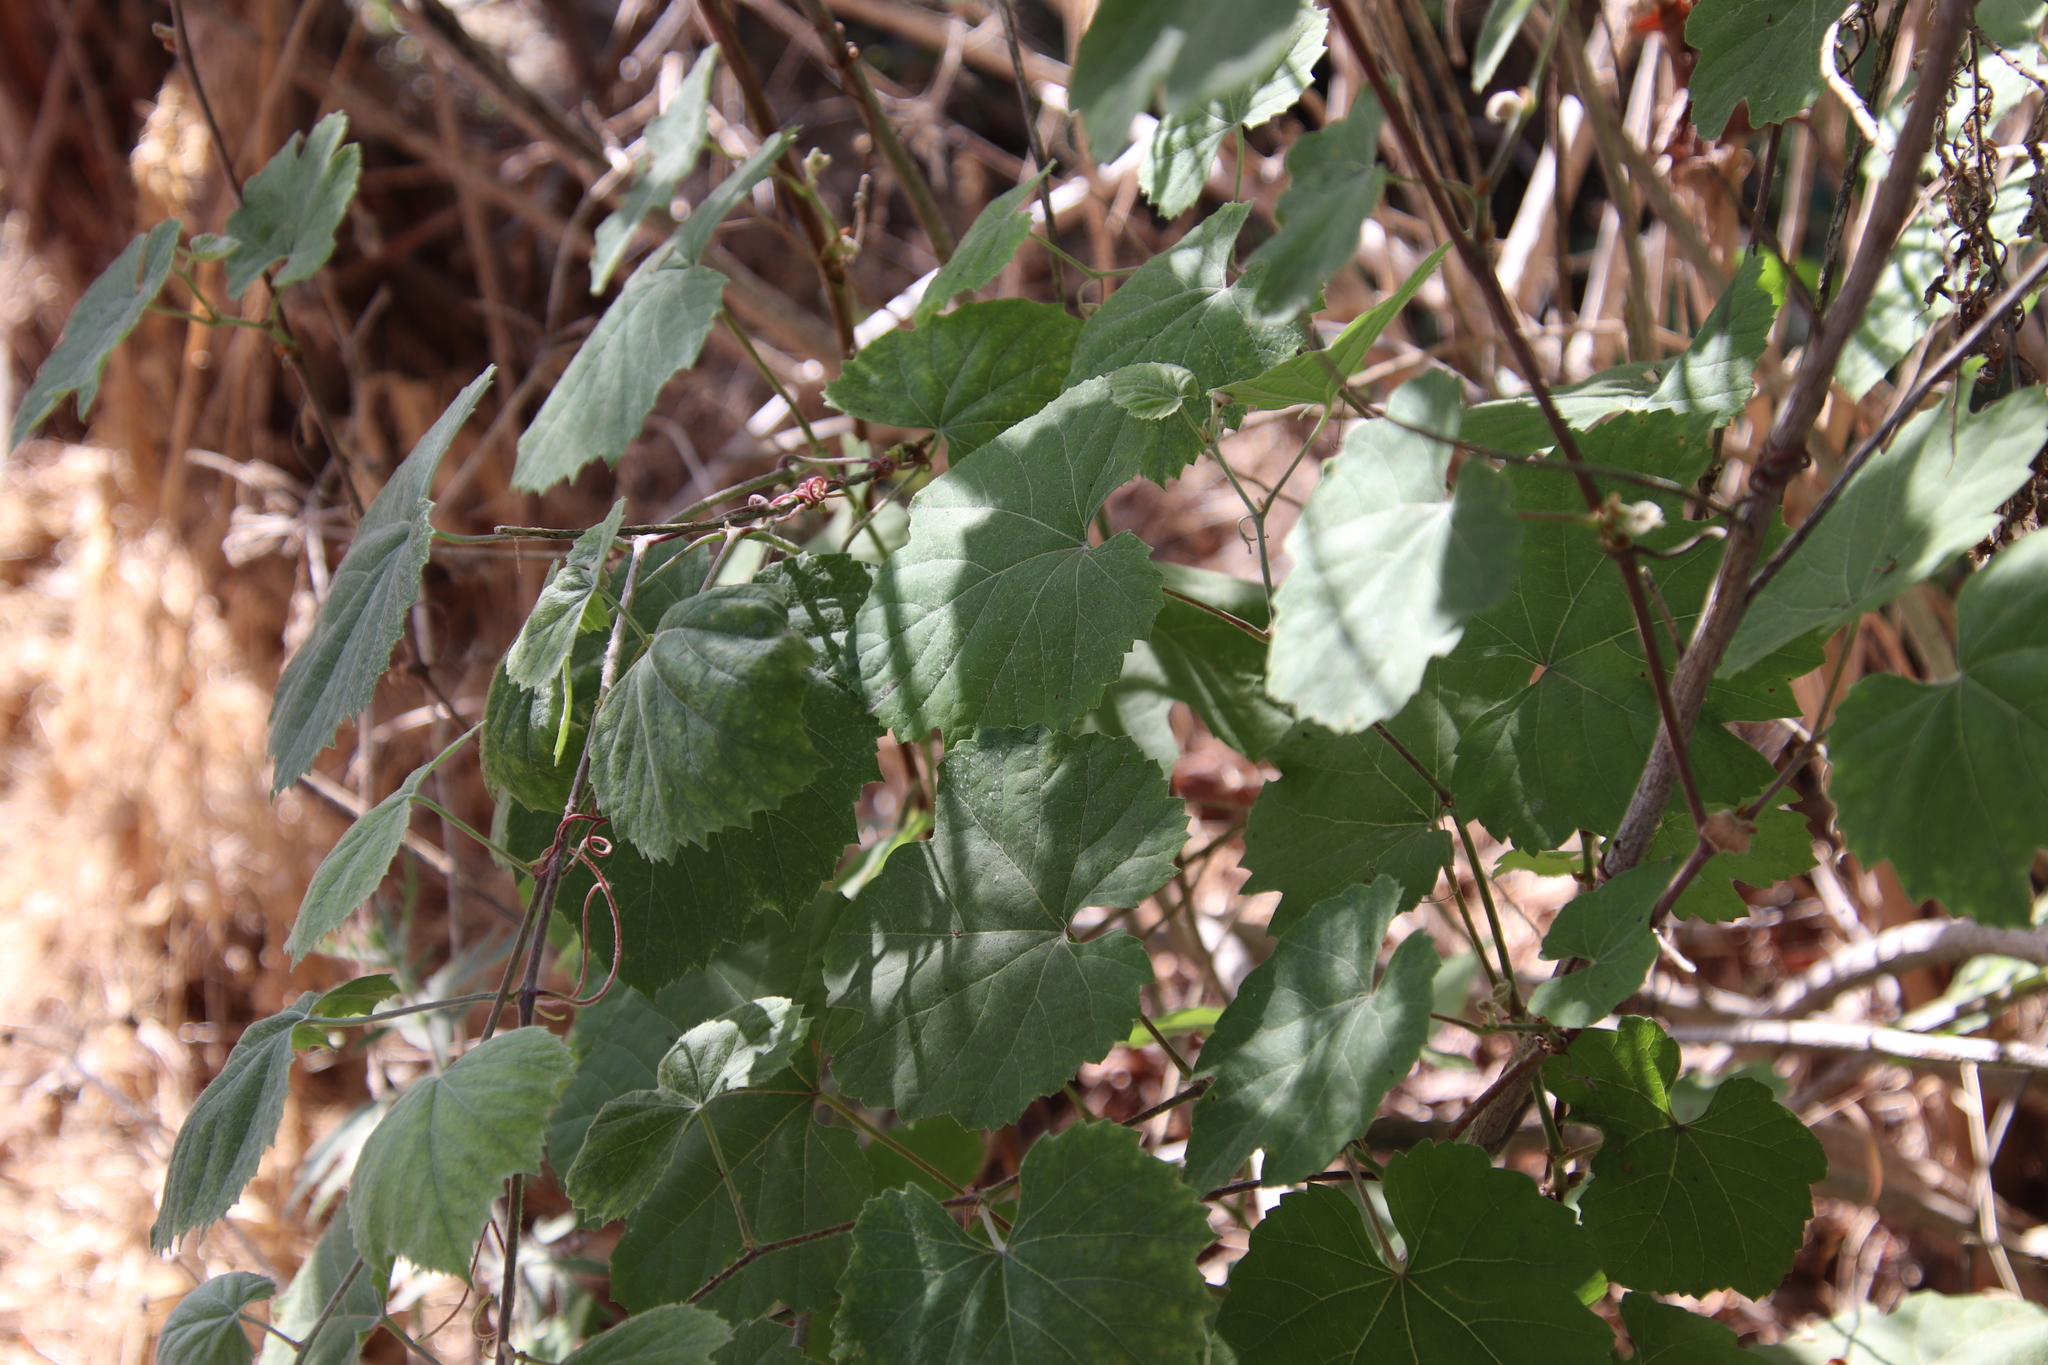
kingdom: Plantae
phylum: Tracheophyta
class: Magnoliopsida
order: Vitales
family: Vitaceae
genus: Vitis
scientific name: Vitis girdiana
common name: Desert wild grape
